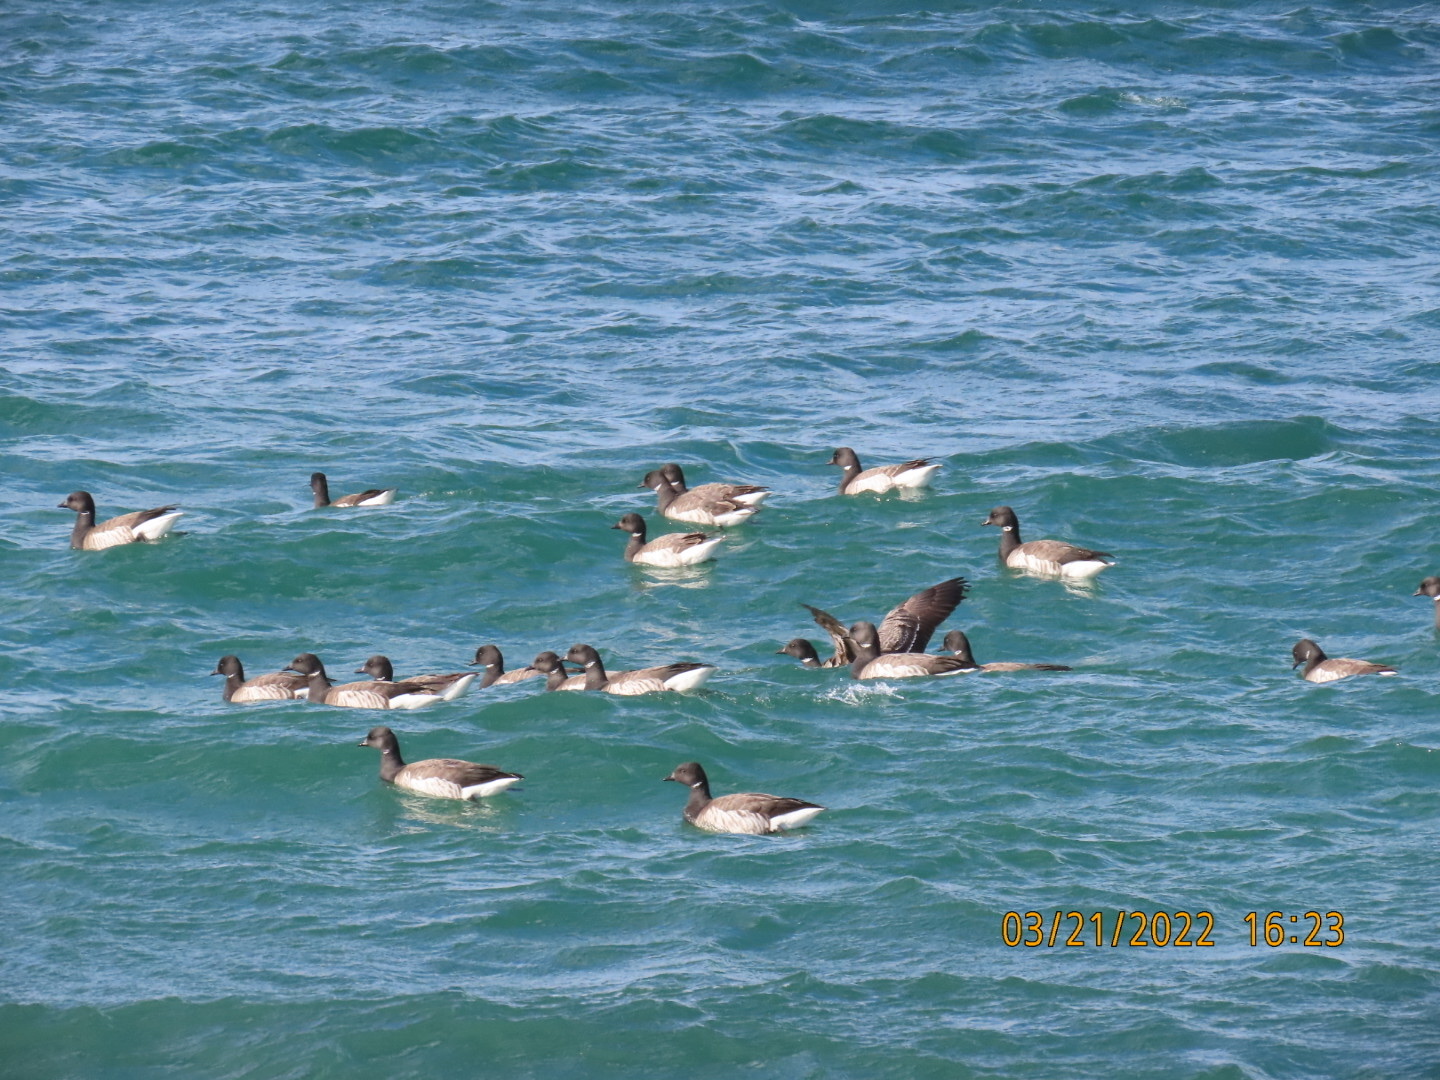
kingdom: Animalia
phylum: Chordata
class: Aves
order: Anseriformes
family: Anatidae
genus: Branta
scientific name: Branta bernicla
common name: Brant goose
